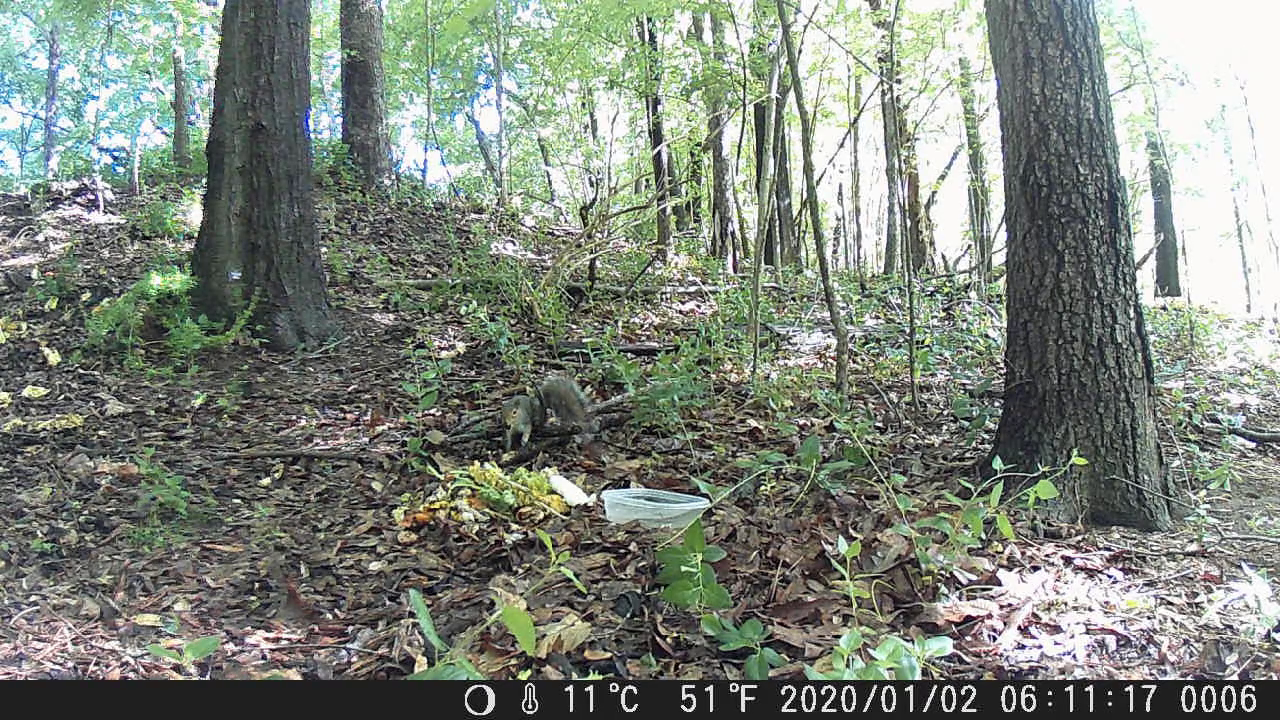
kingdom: Animalia
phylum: Chordata
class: Mammalia
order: Rodentia
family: Sciuridae
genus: Sciurus
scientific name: Sciurus carolinensis
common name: Eastern gray squirrel
